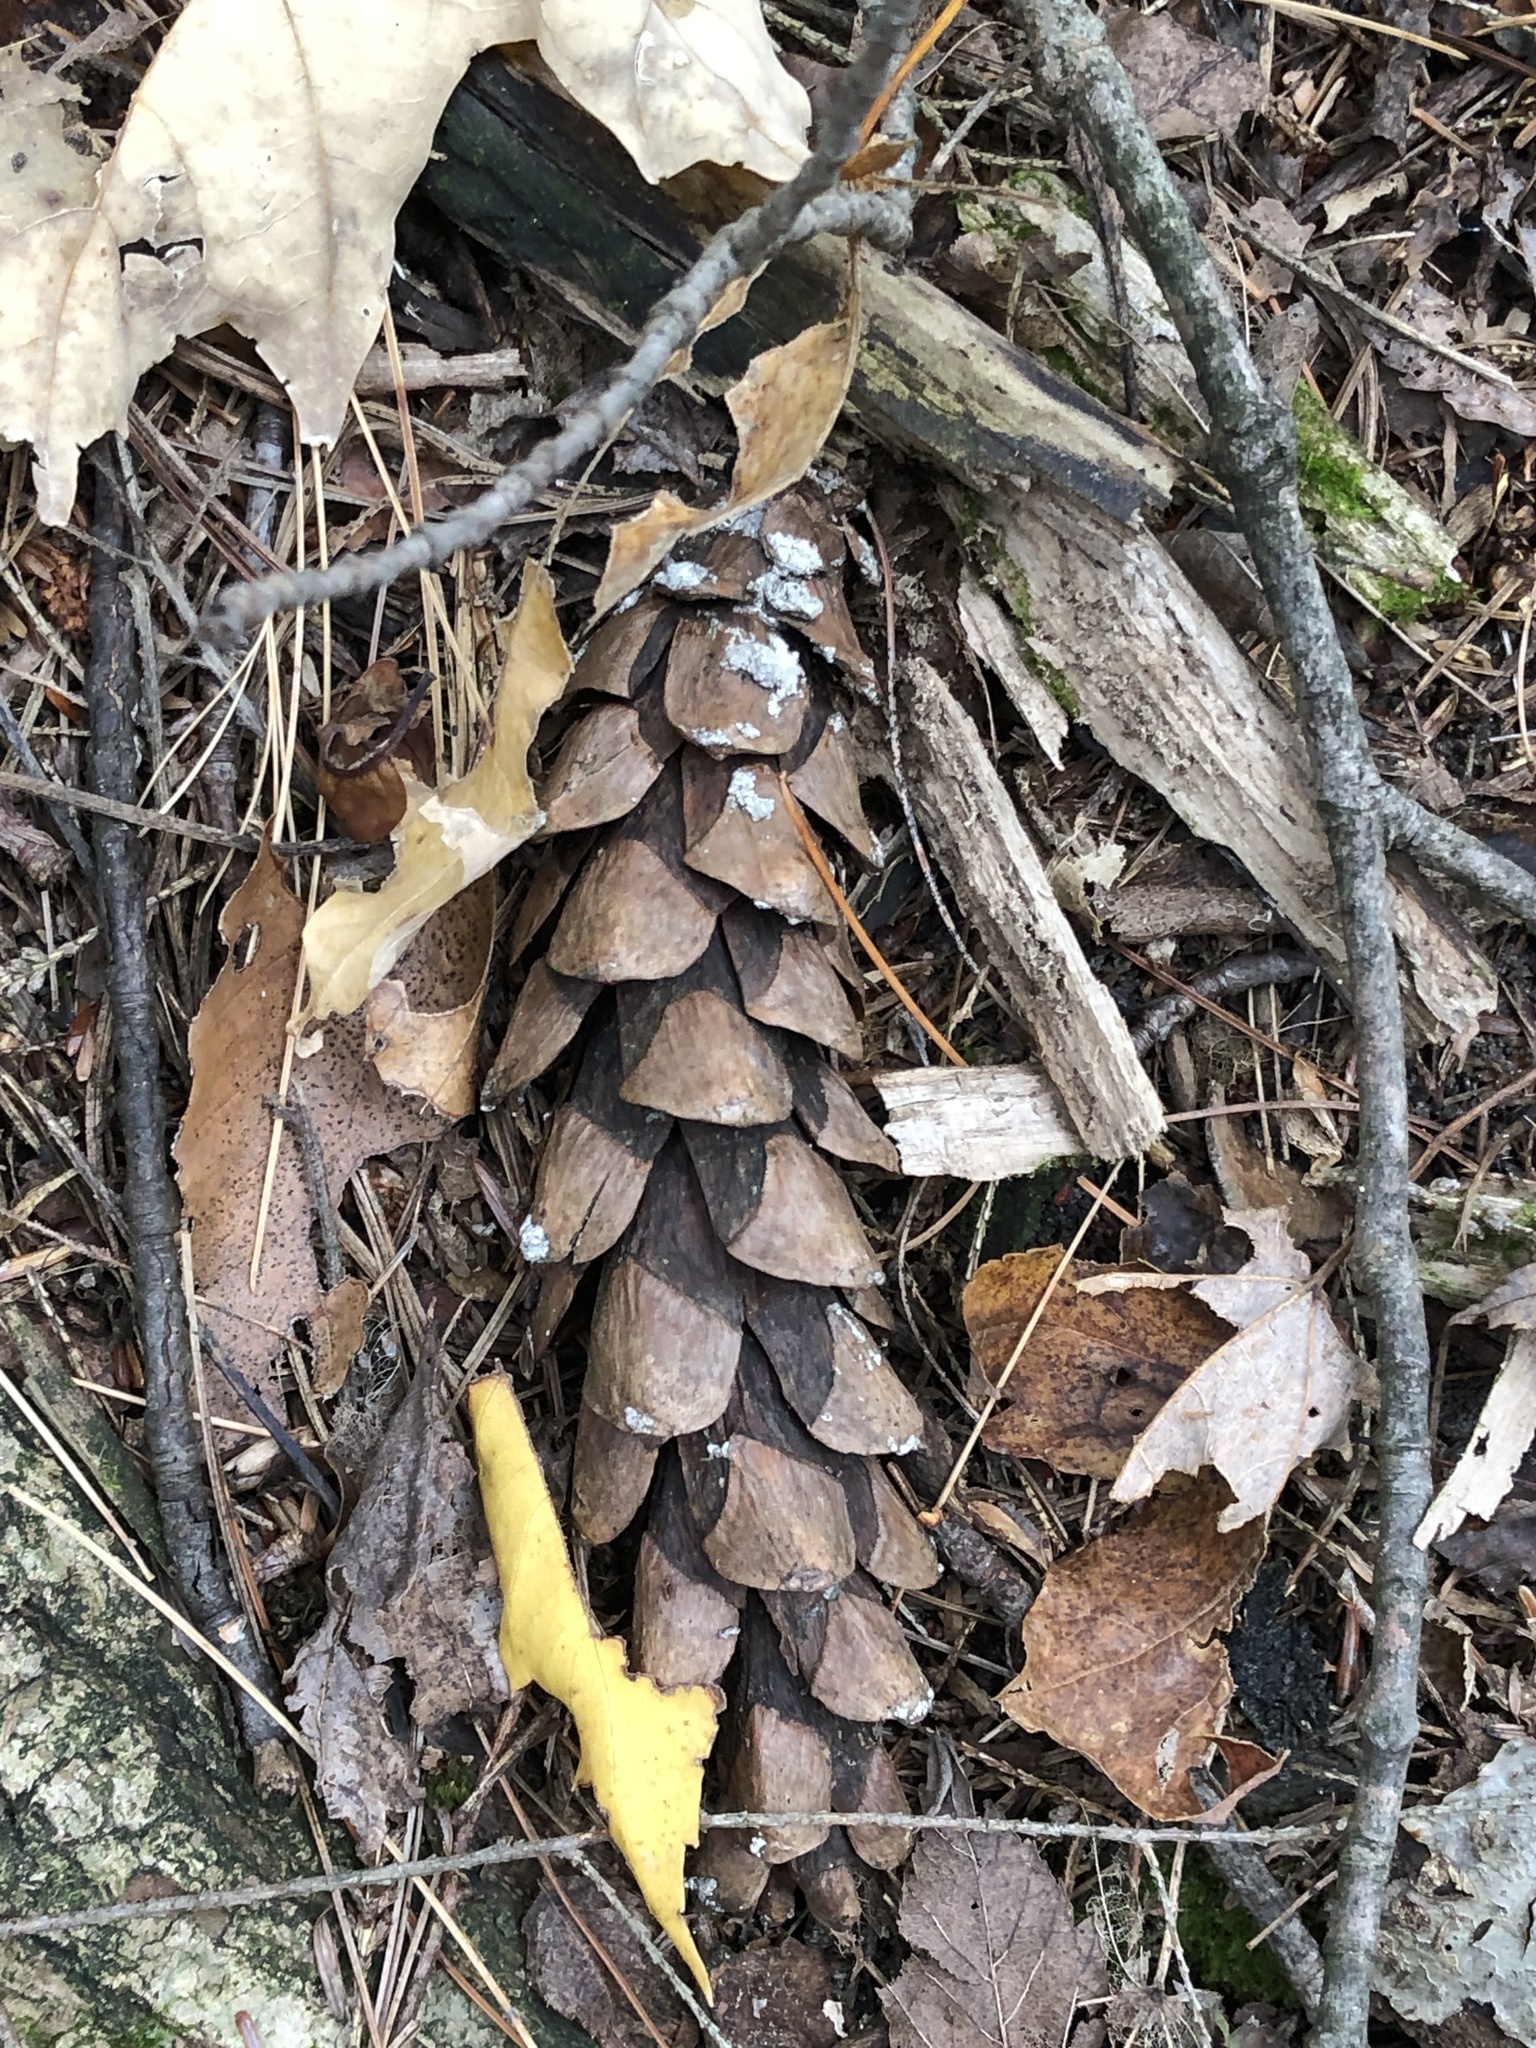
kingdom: Plantae
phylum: Tracheophyta
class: Pinopsida
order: Pinales
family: Pinaceae
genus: Pinus
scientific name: Pinus strobus
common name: Weymouth pine
